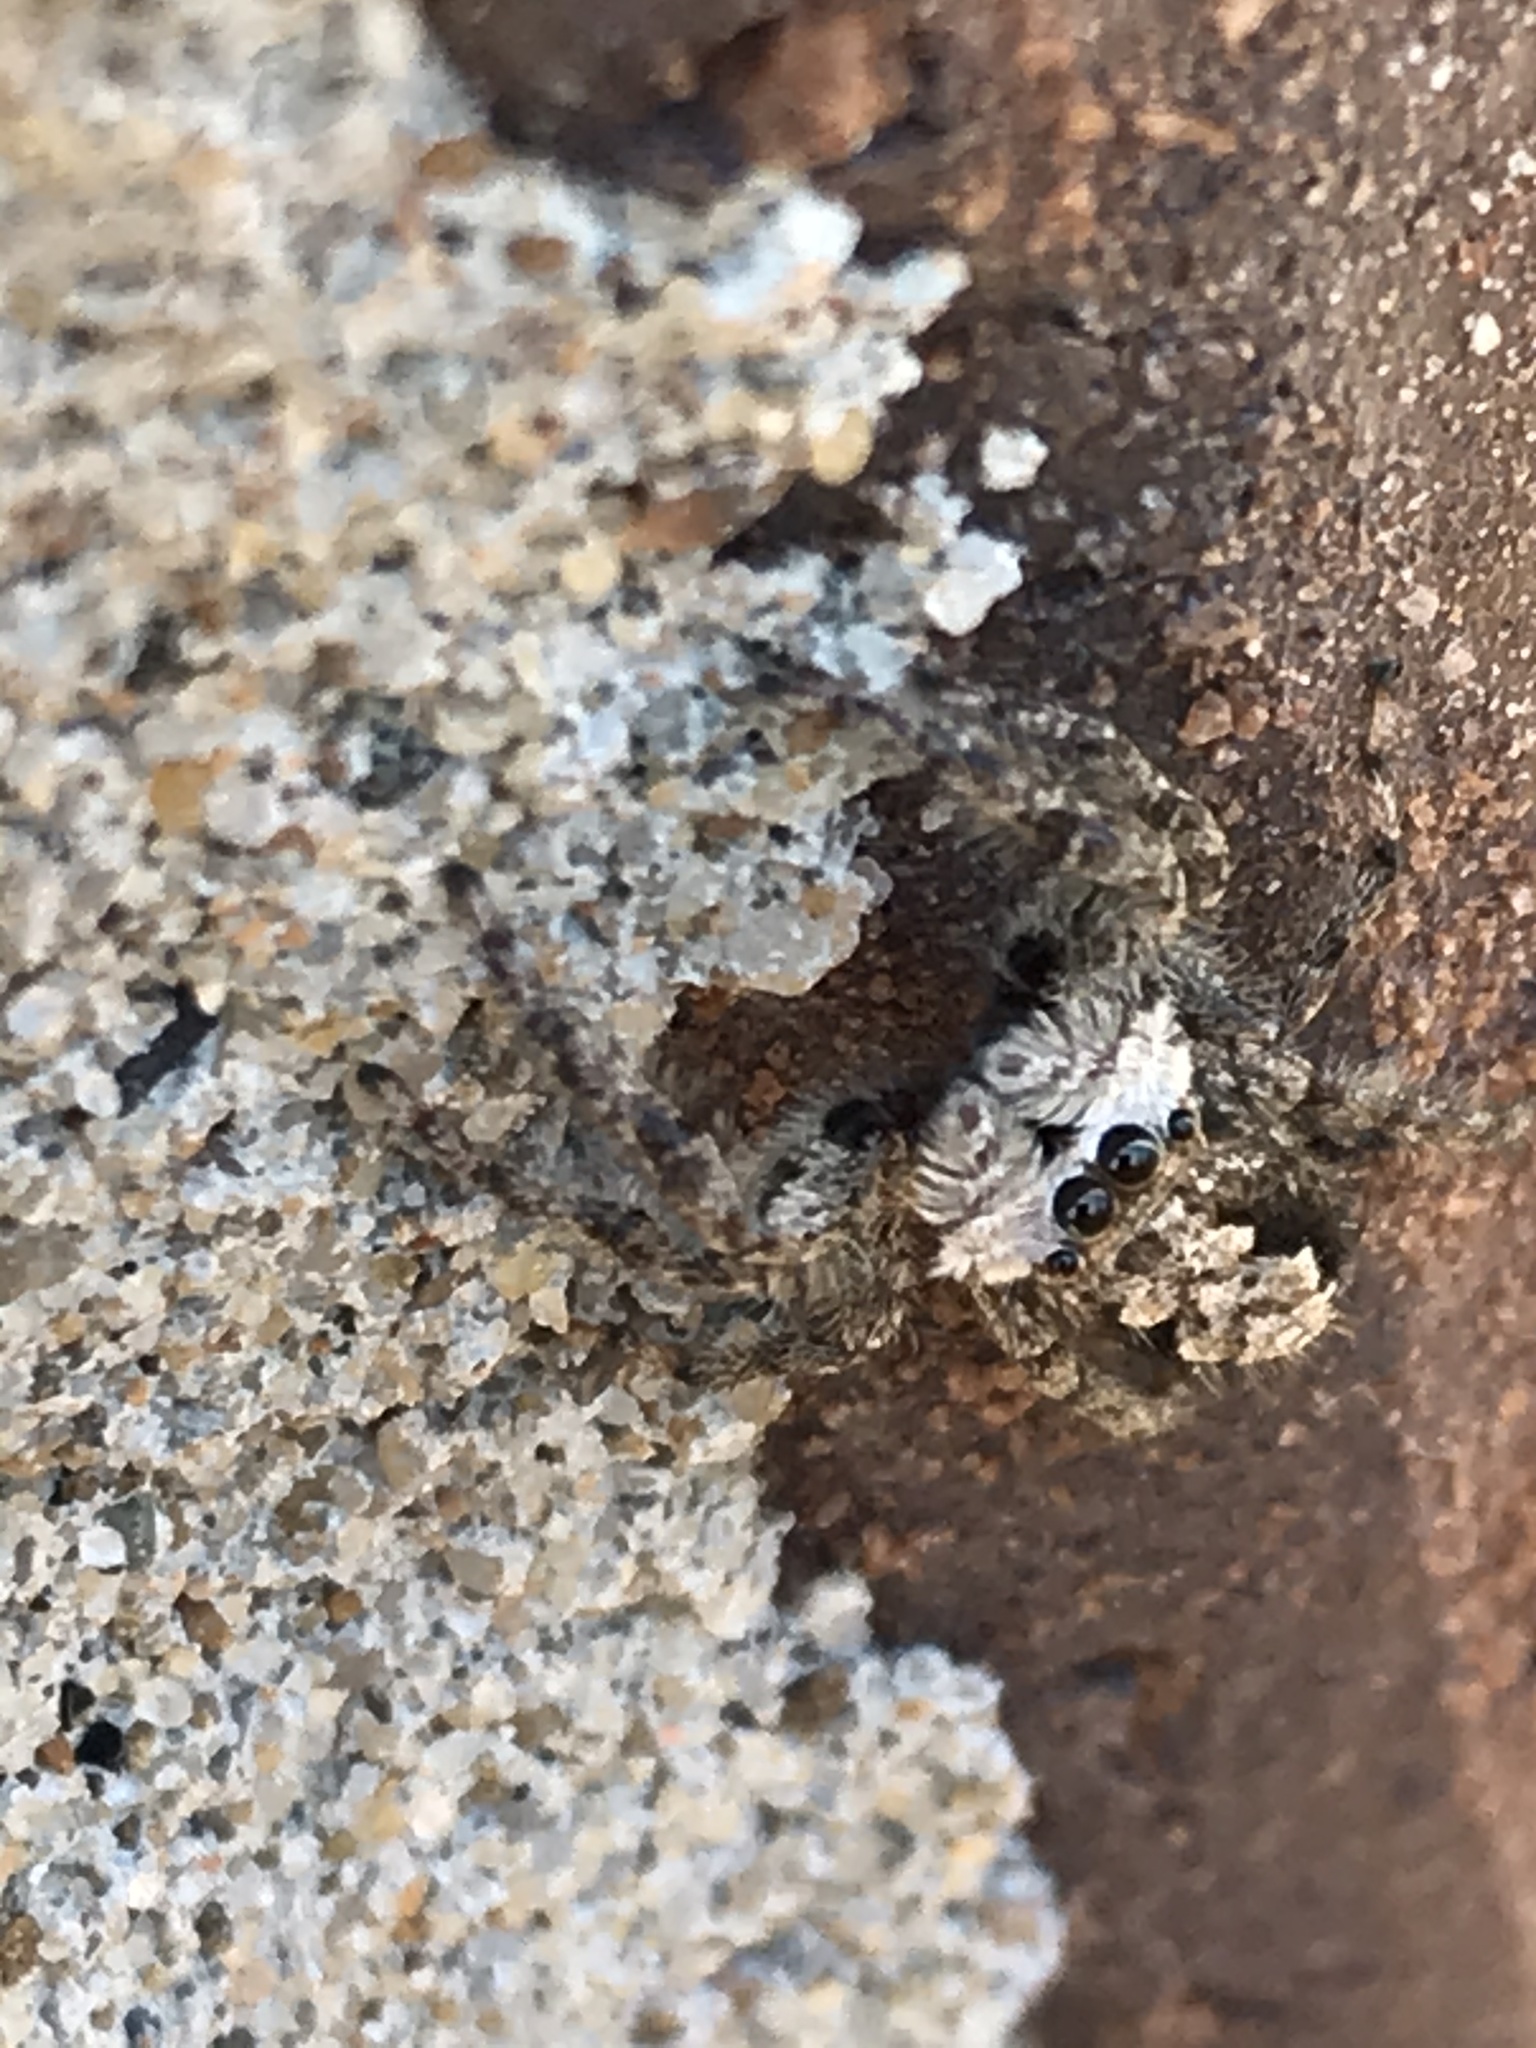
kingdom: Animalia
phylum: Arthropoda
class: Arachnida
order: Araneae
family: Salticidae
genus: Platycryptus
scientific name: Platycryptus undatus
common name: Tan jumping spider
